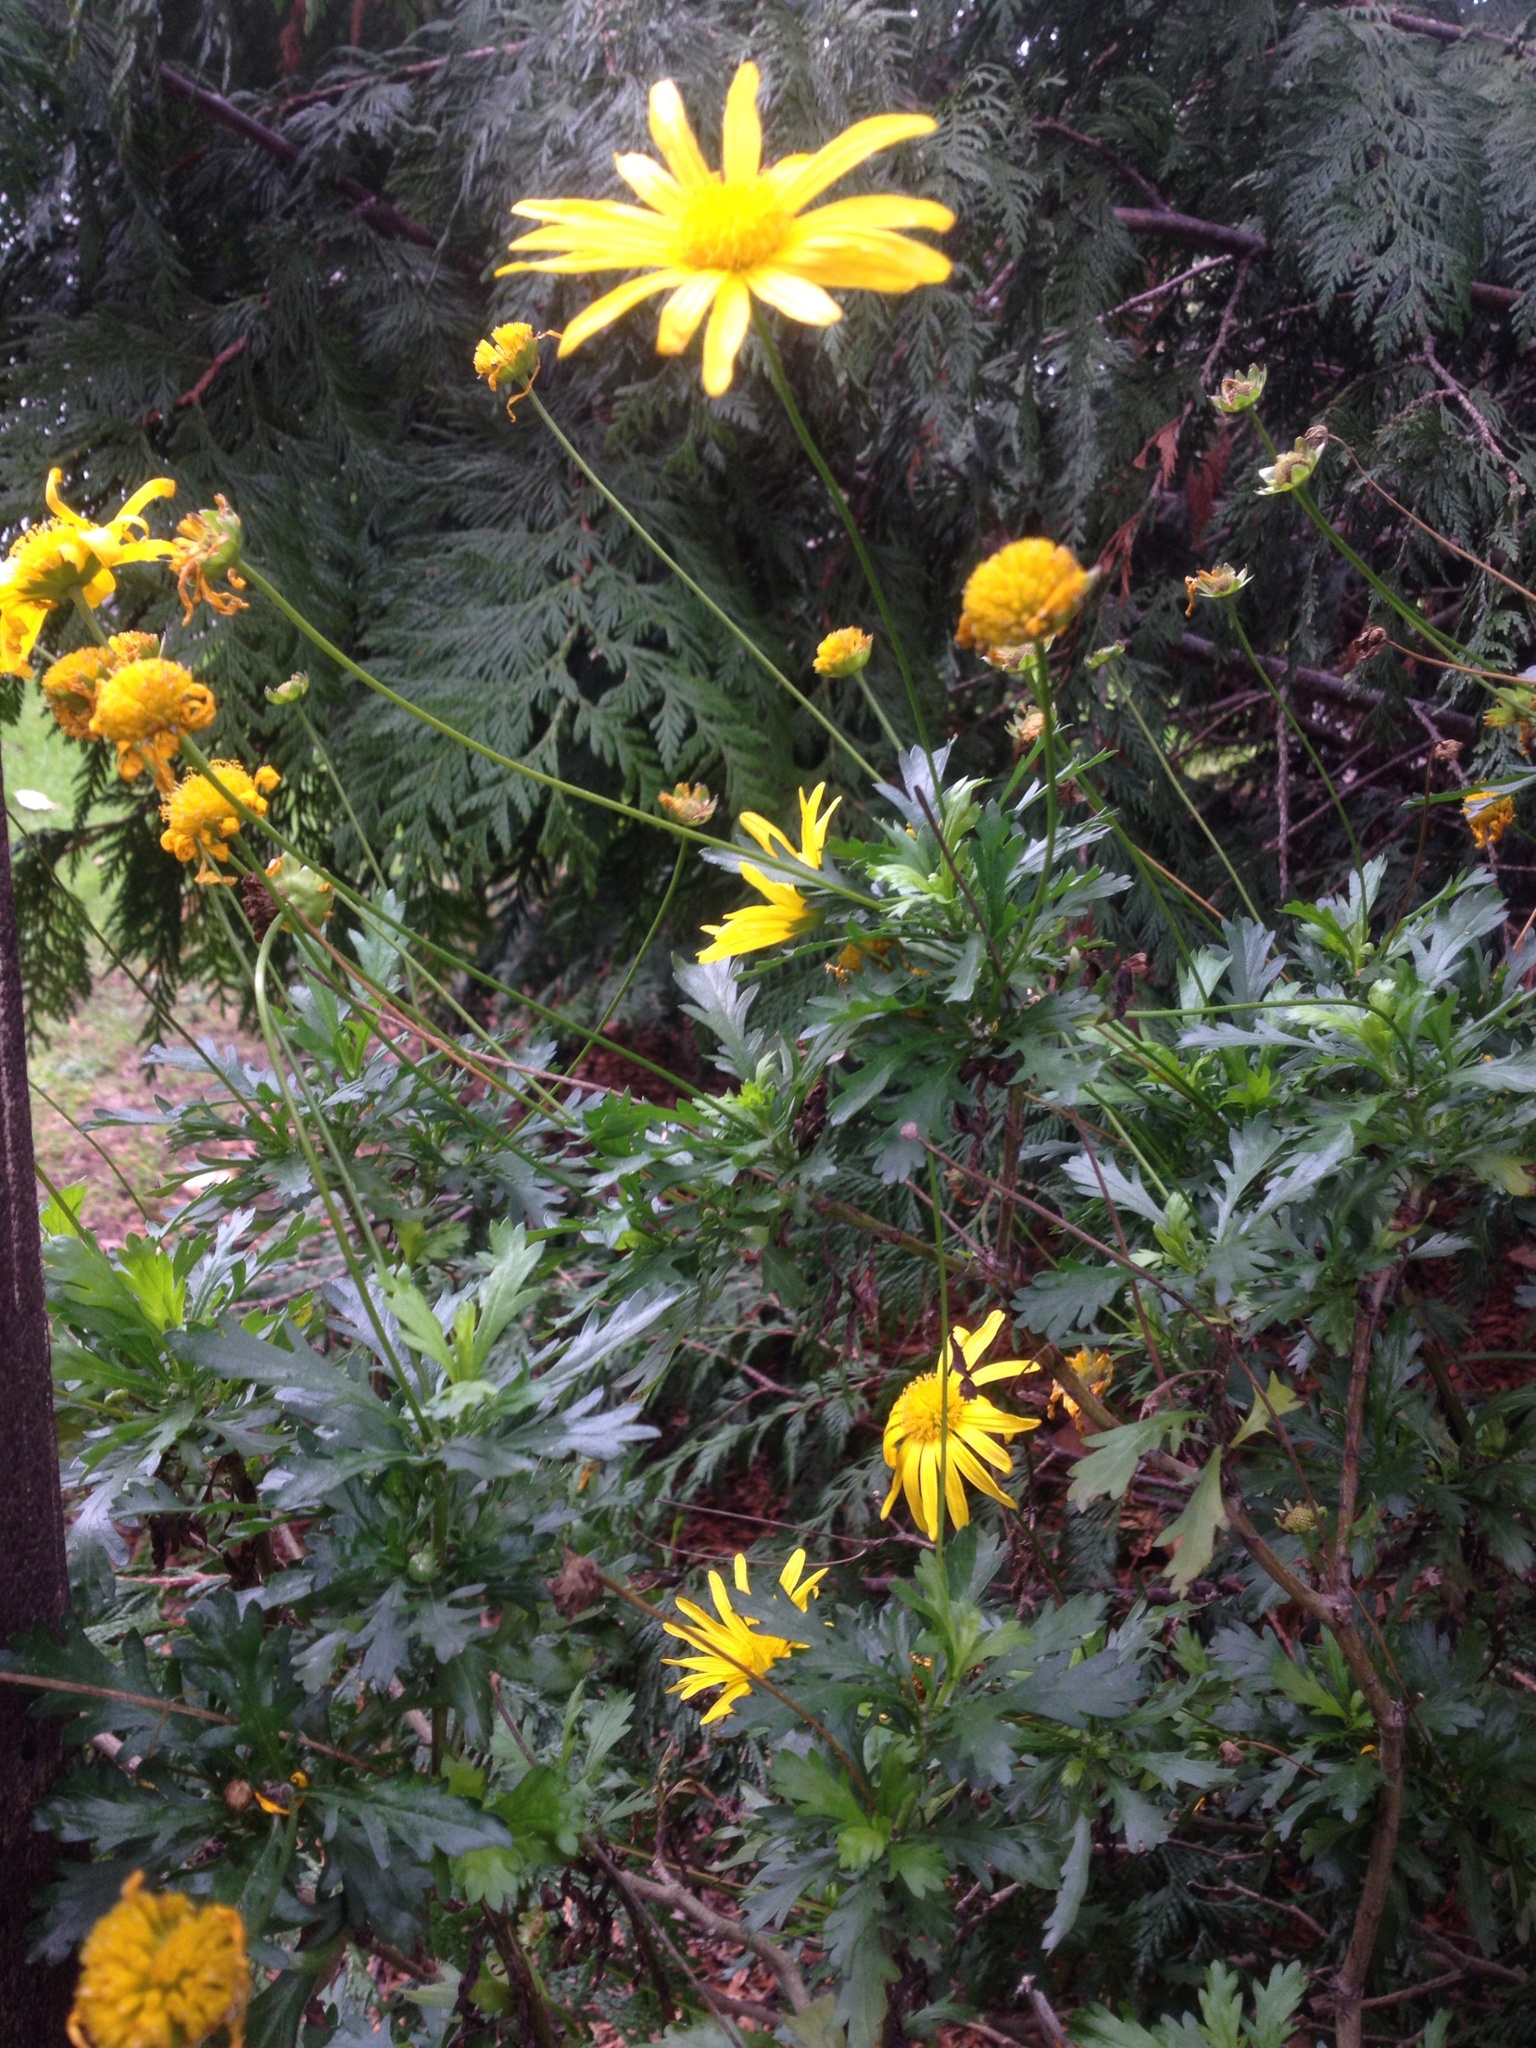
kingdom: Plantae
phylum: Tracheophyta
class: Magnoliopsida
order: Asterales
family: Asteraceae
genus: Euryops
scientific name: Euryops chrysanthemoides
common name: Bull's eye
